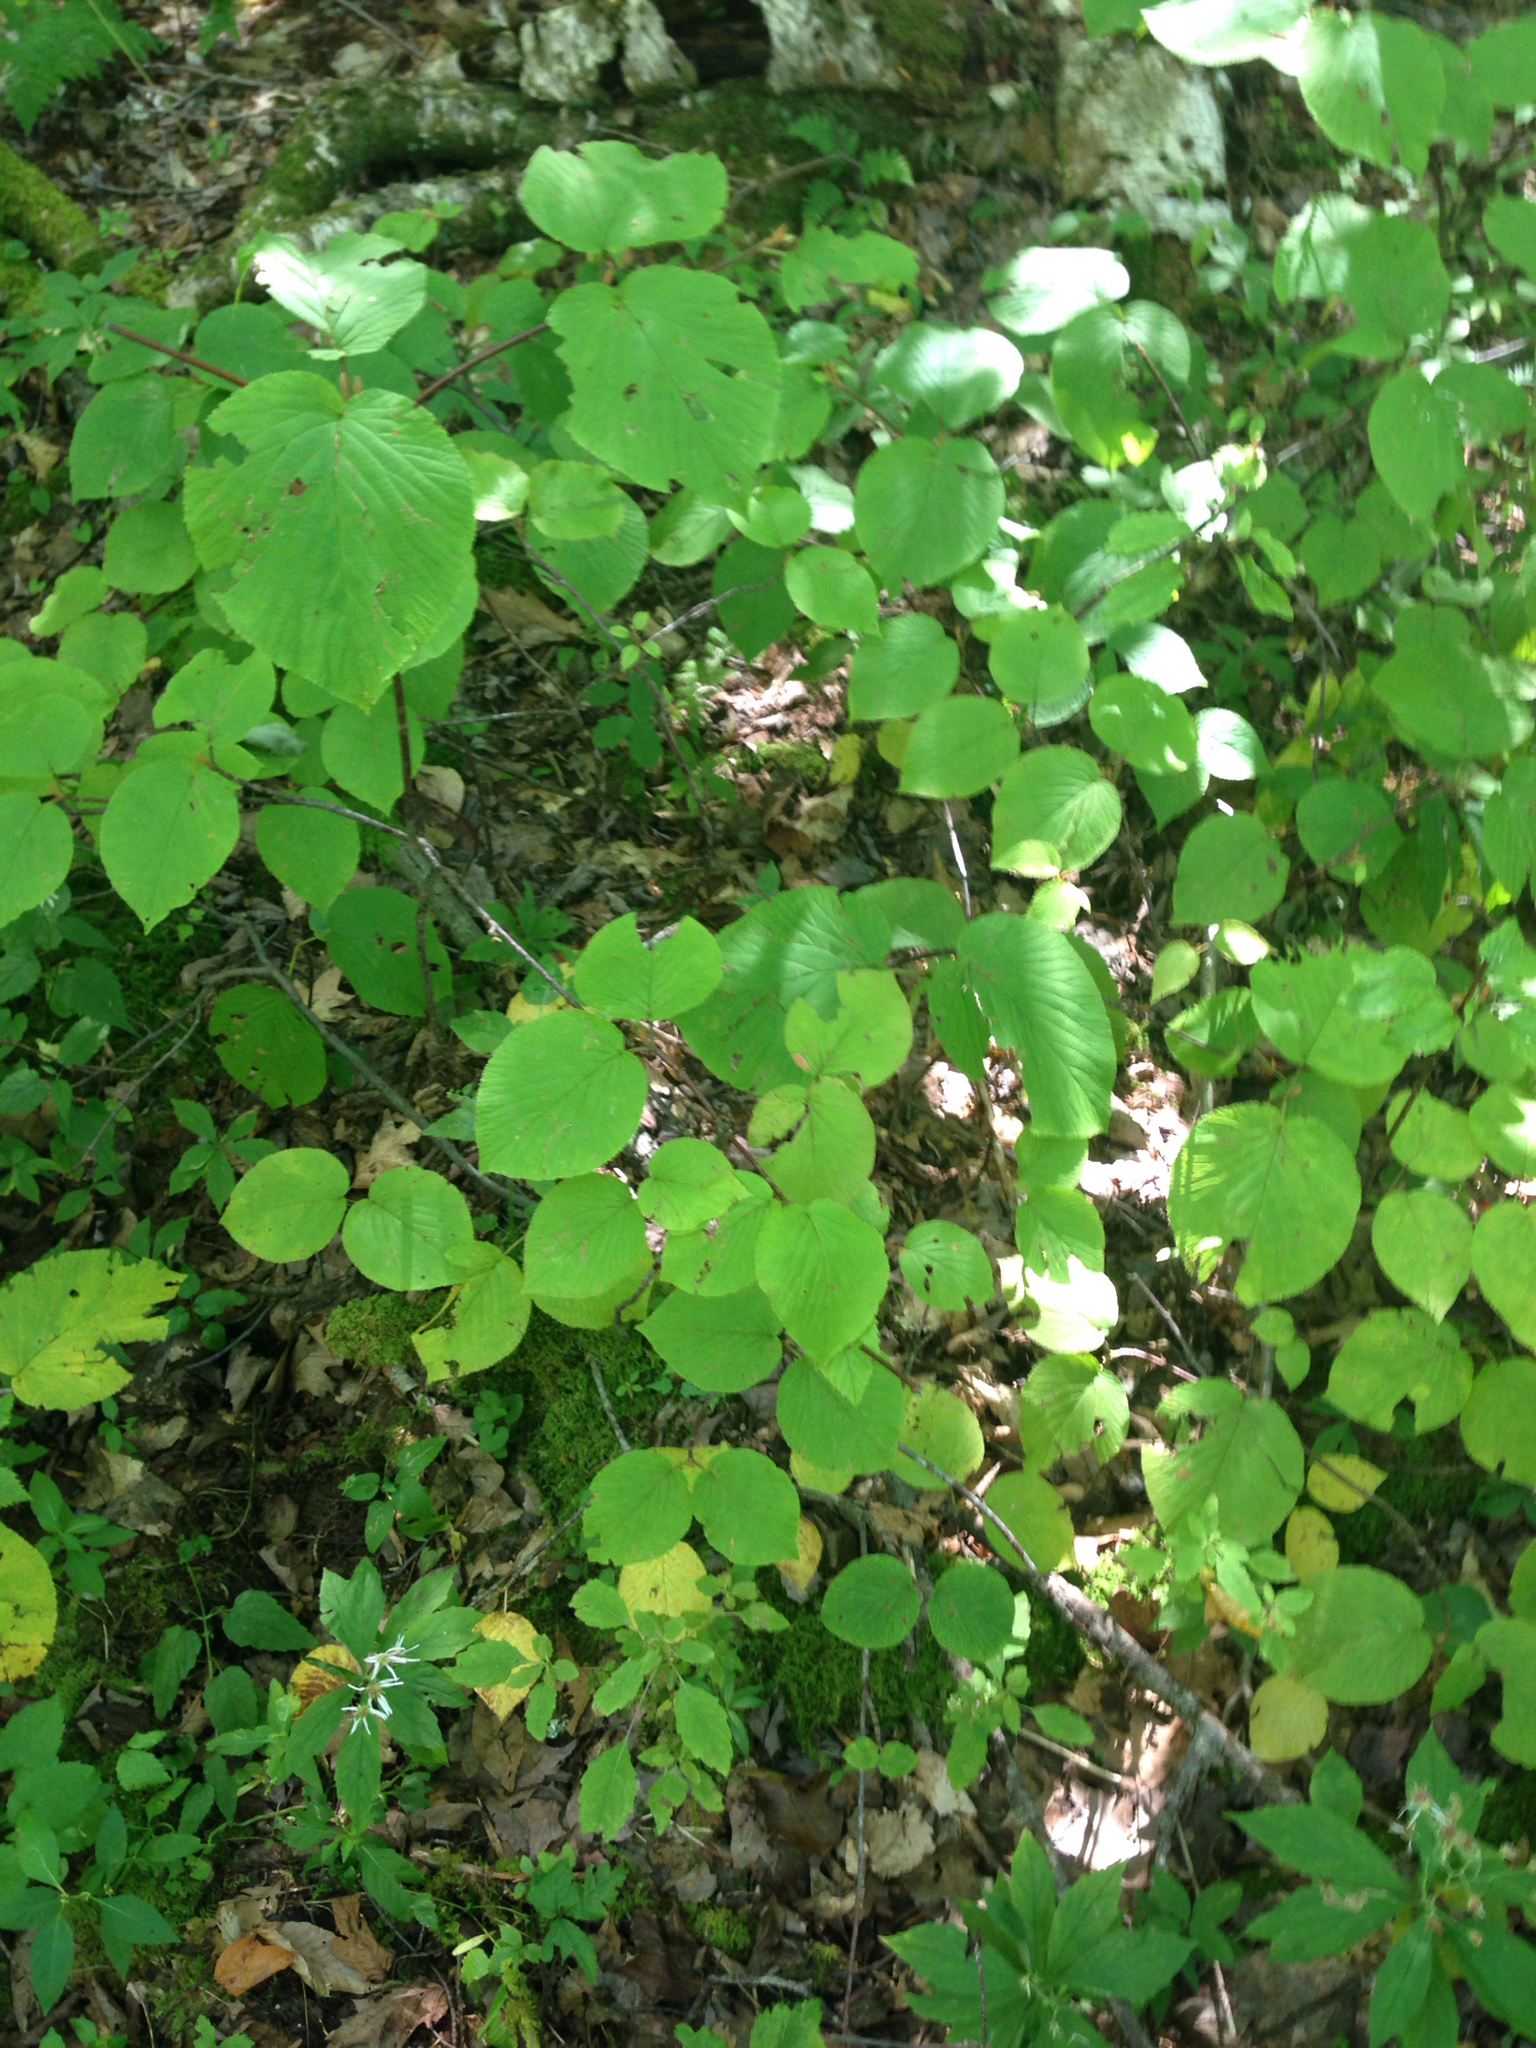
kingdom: Plantae
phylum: Tracheophyta
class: Magnoliopsida
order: Dipsacales
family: Viburnaceae
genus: Viburnum
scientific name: Viburnum lantanoides
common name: Hobblebush
